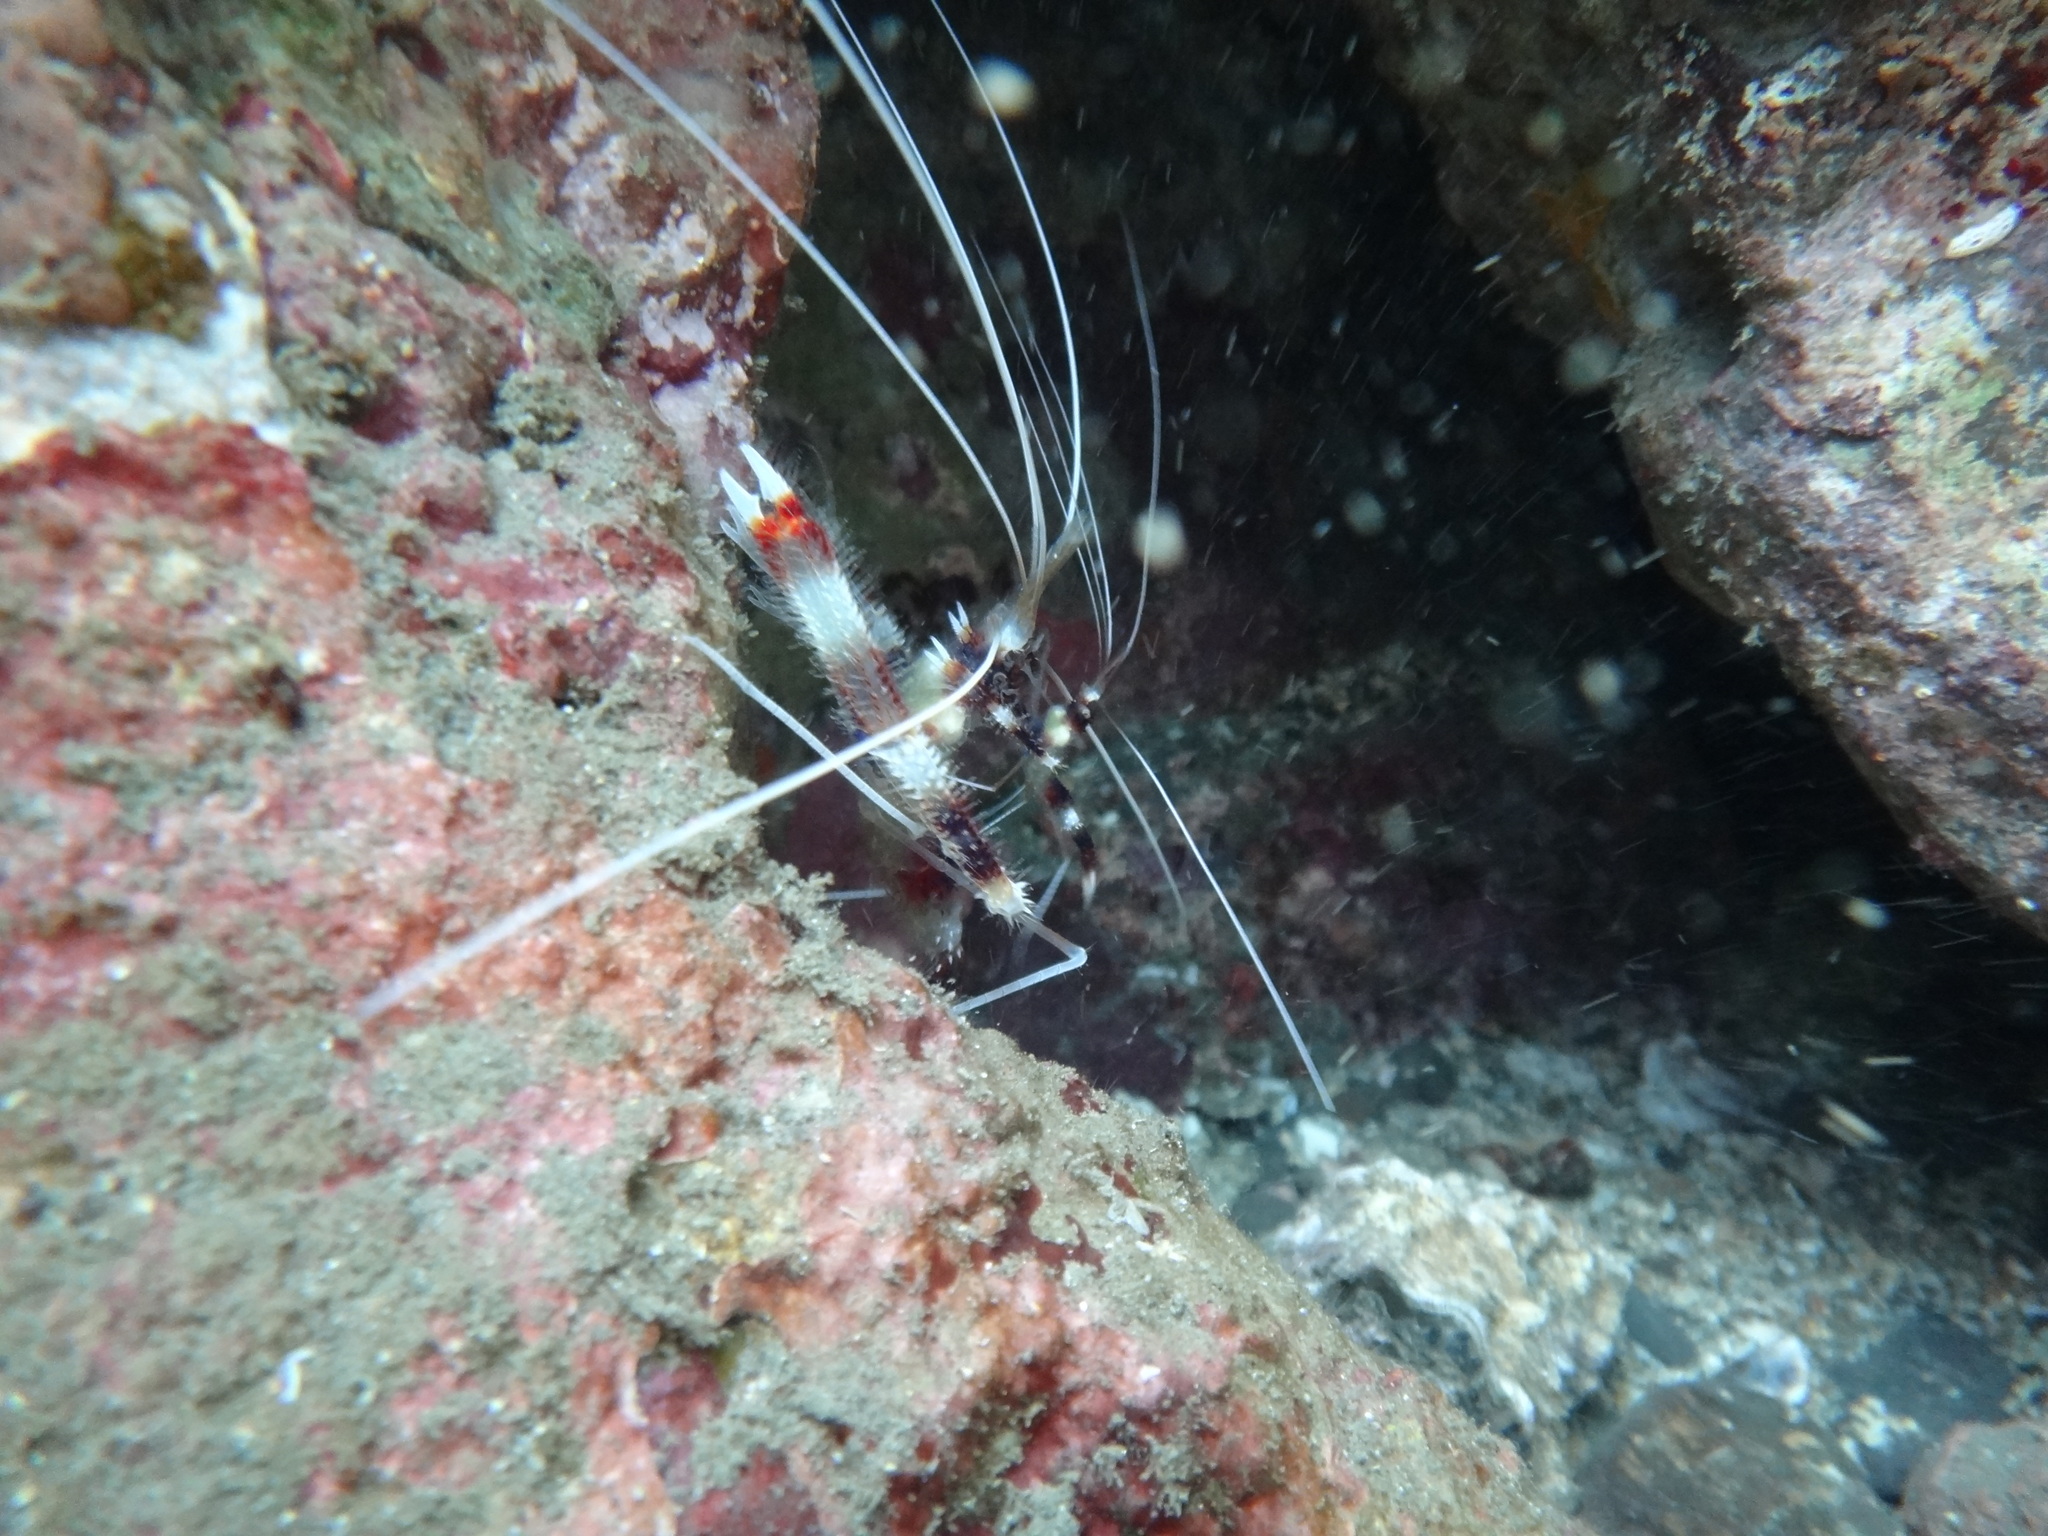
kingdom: Animalia
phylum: Arthropoda
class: Malacostraca
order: Decapoda
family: Stenopodidae
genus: Stenopus
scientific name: Stenopus hispidus
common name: Banded coral shrimp
